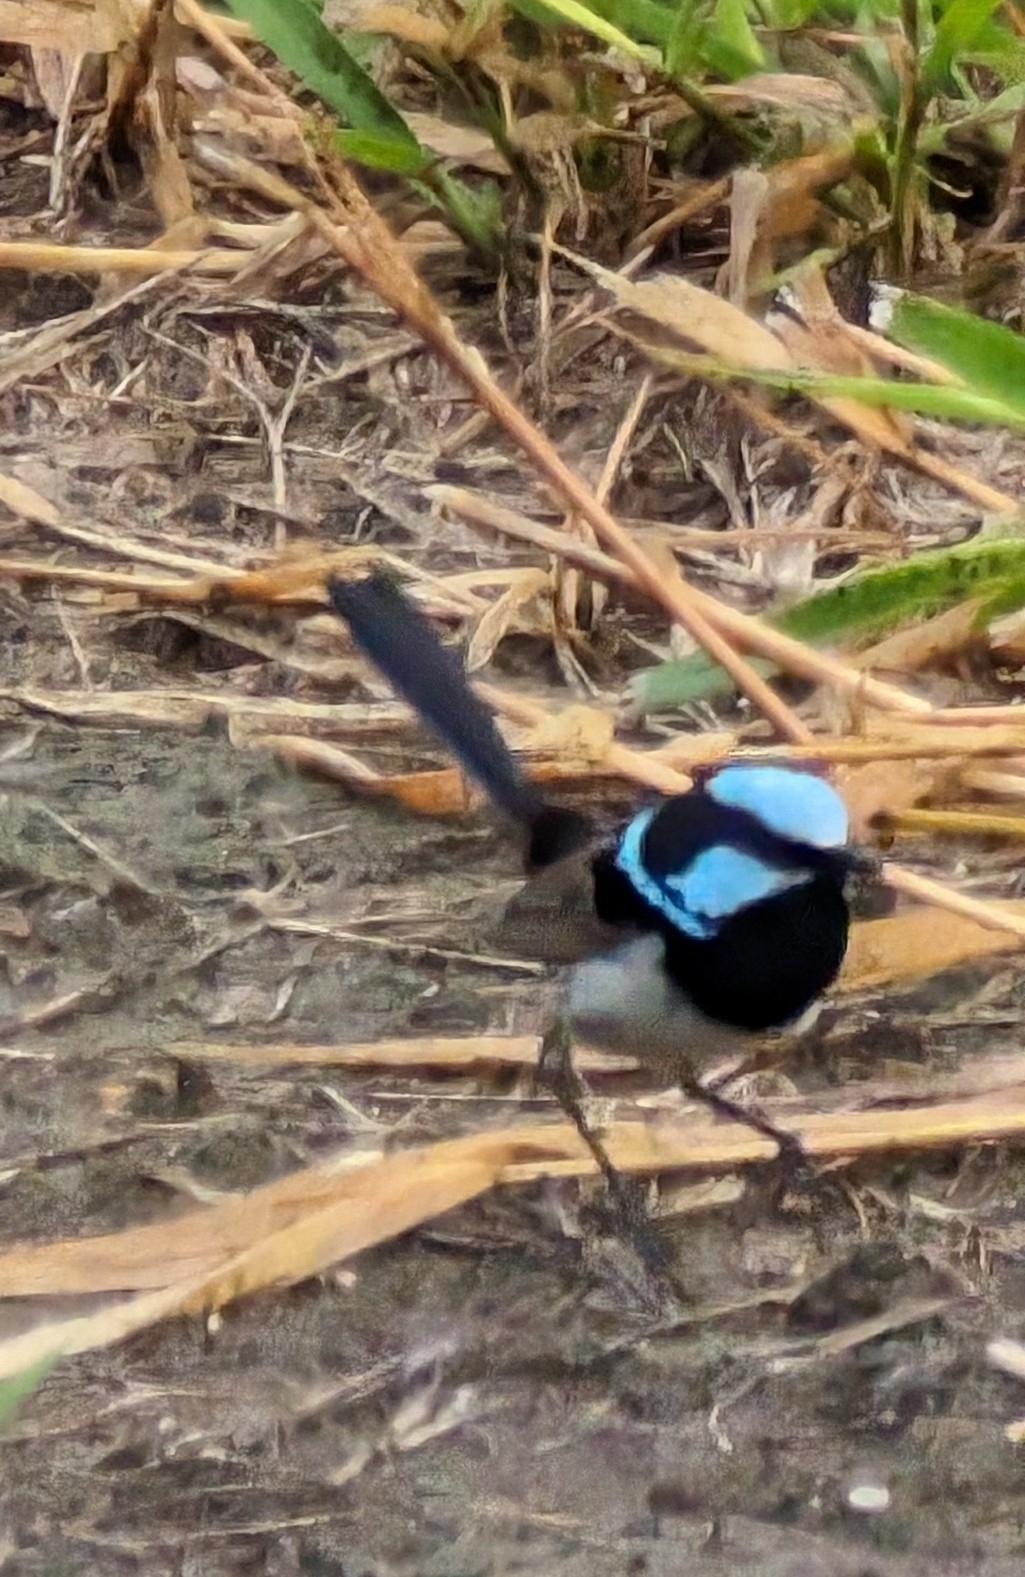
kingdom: Animalia
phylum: Chordata
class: Aves
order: Passeriformes
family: Maluridae
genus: Malurus
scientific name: Malurus cyaneus
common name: Superb fairywren
